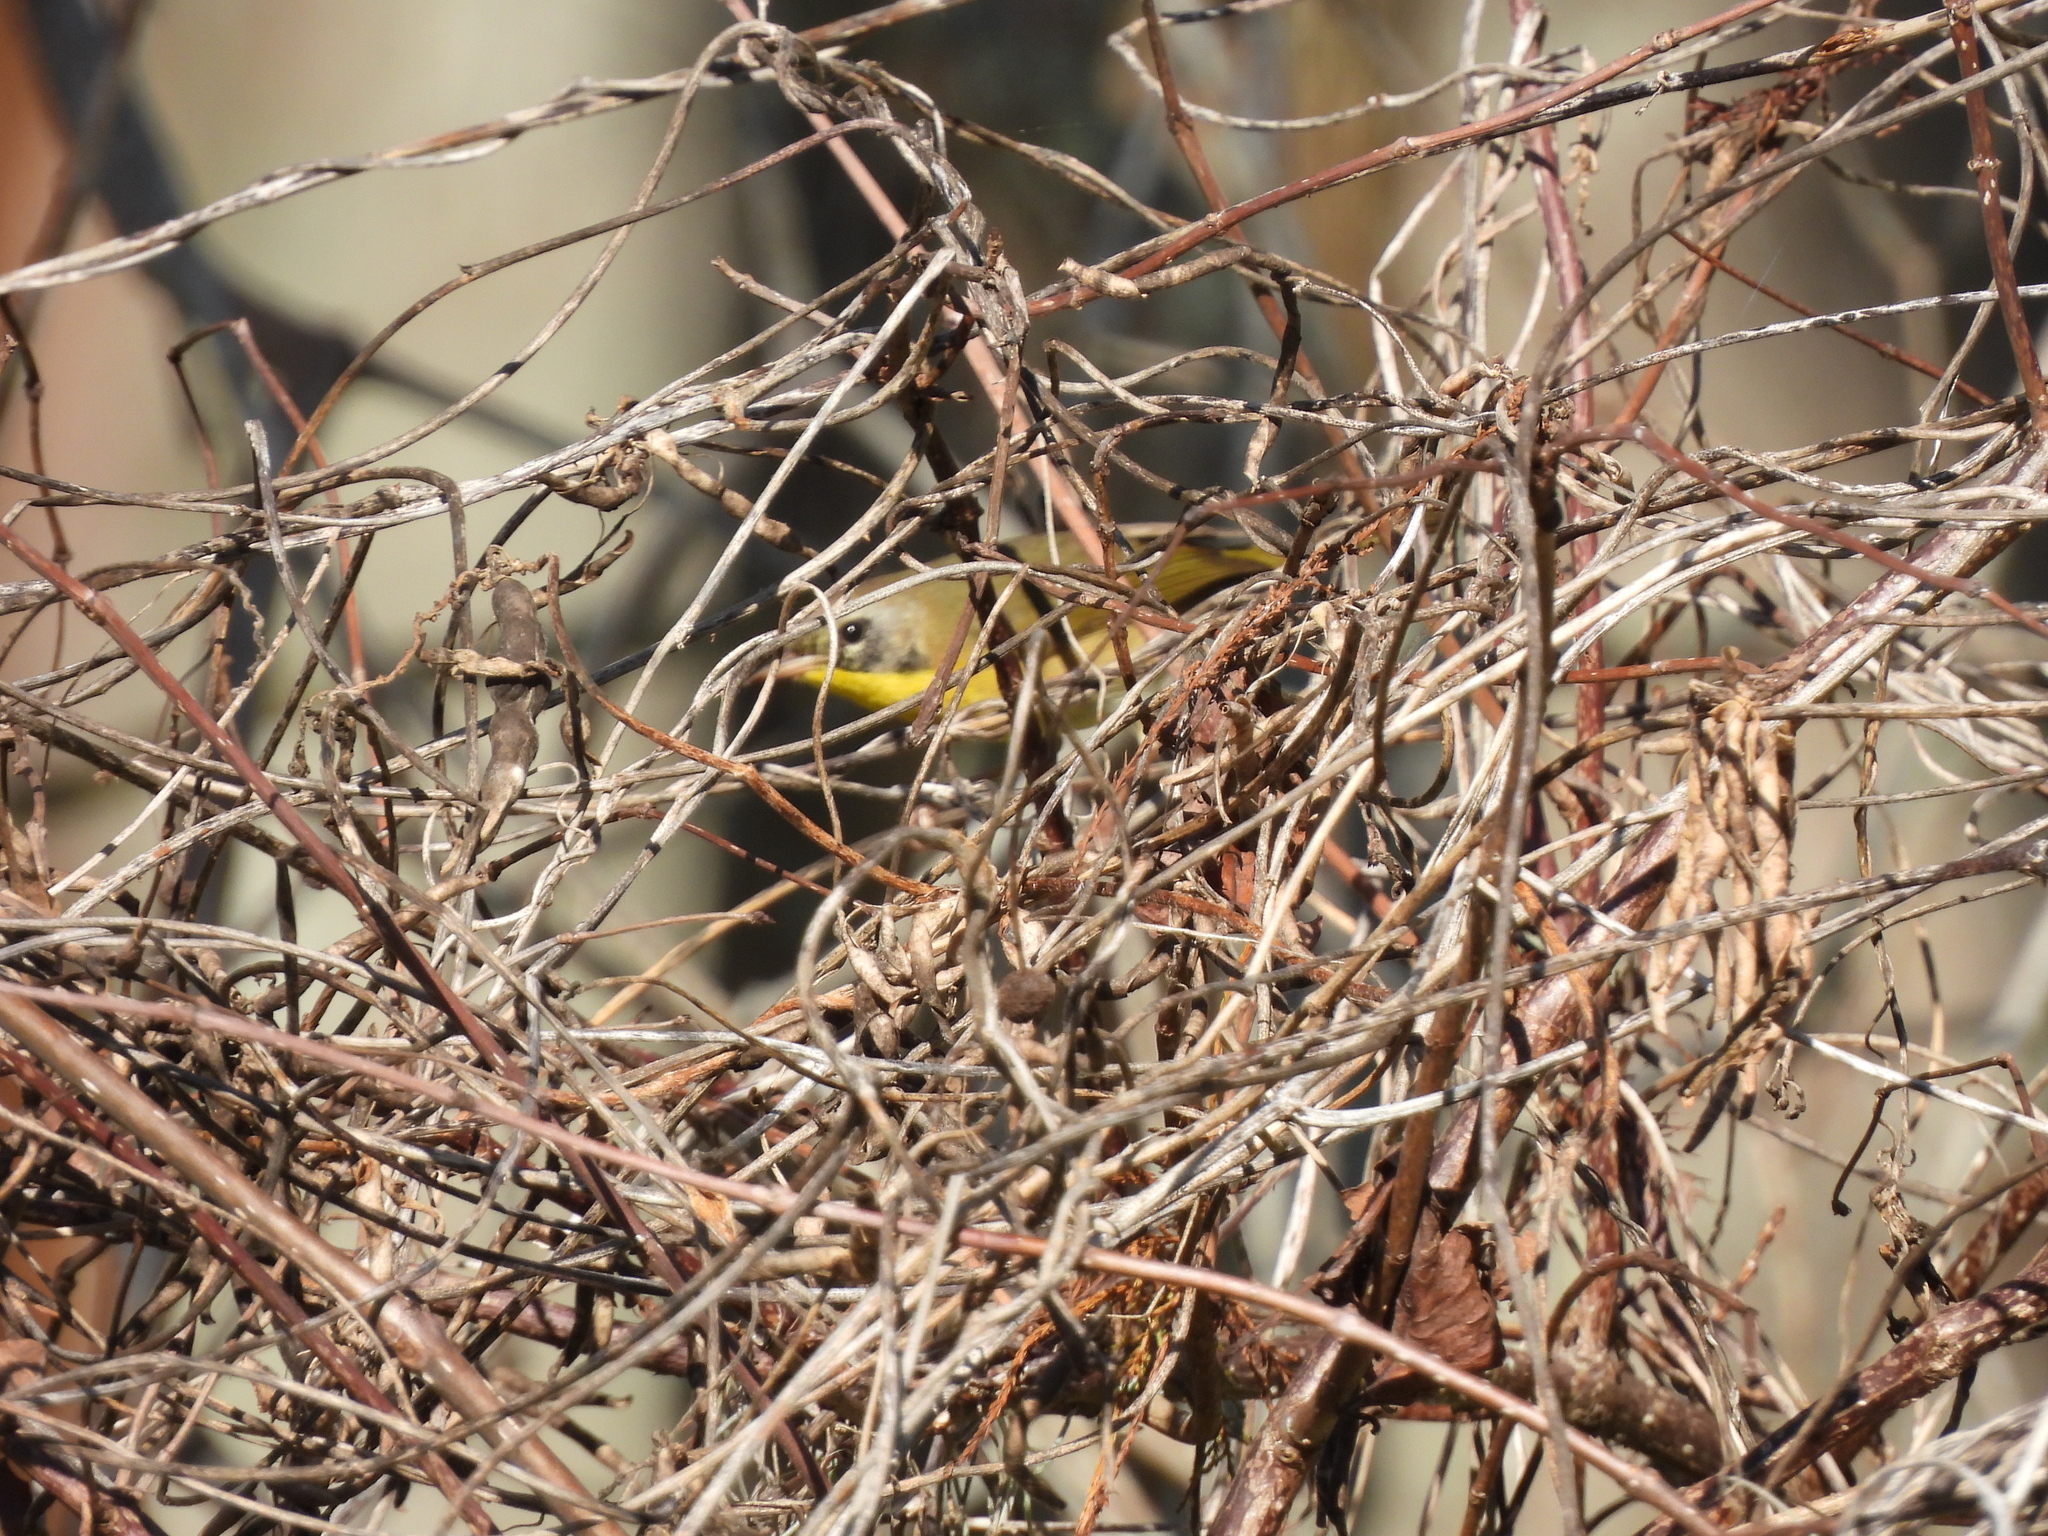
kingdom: Animalia
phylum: Chordata
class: Aves
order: Passeriformes
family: Parulidae
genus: Geothlypis
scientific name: Geothlypis trichas
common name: Common yellowthroat
